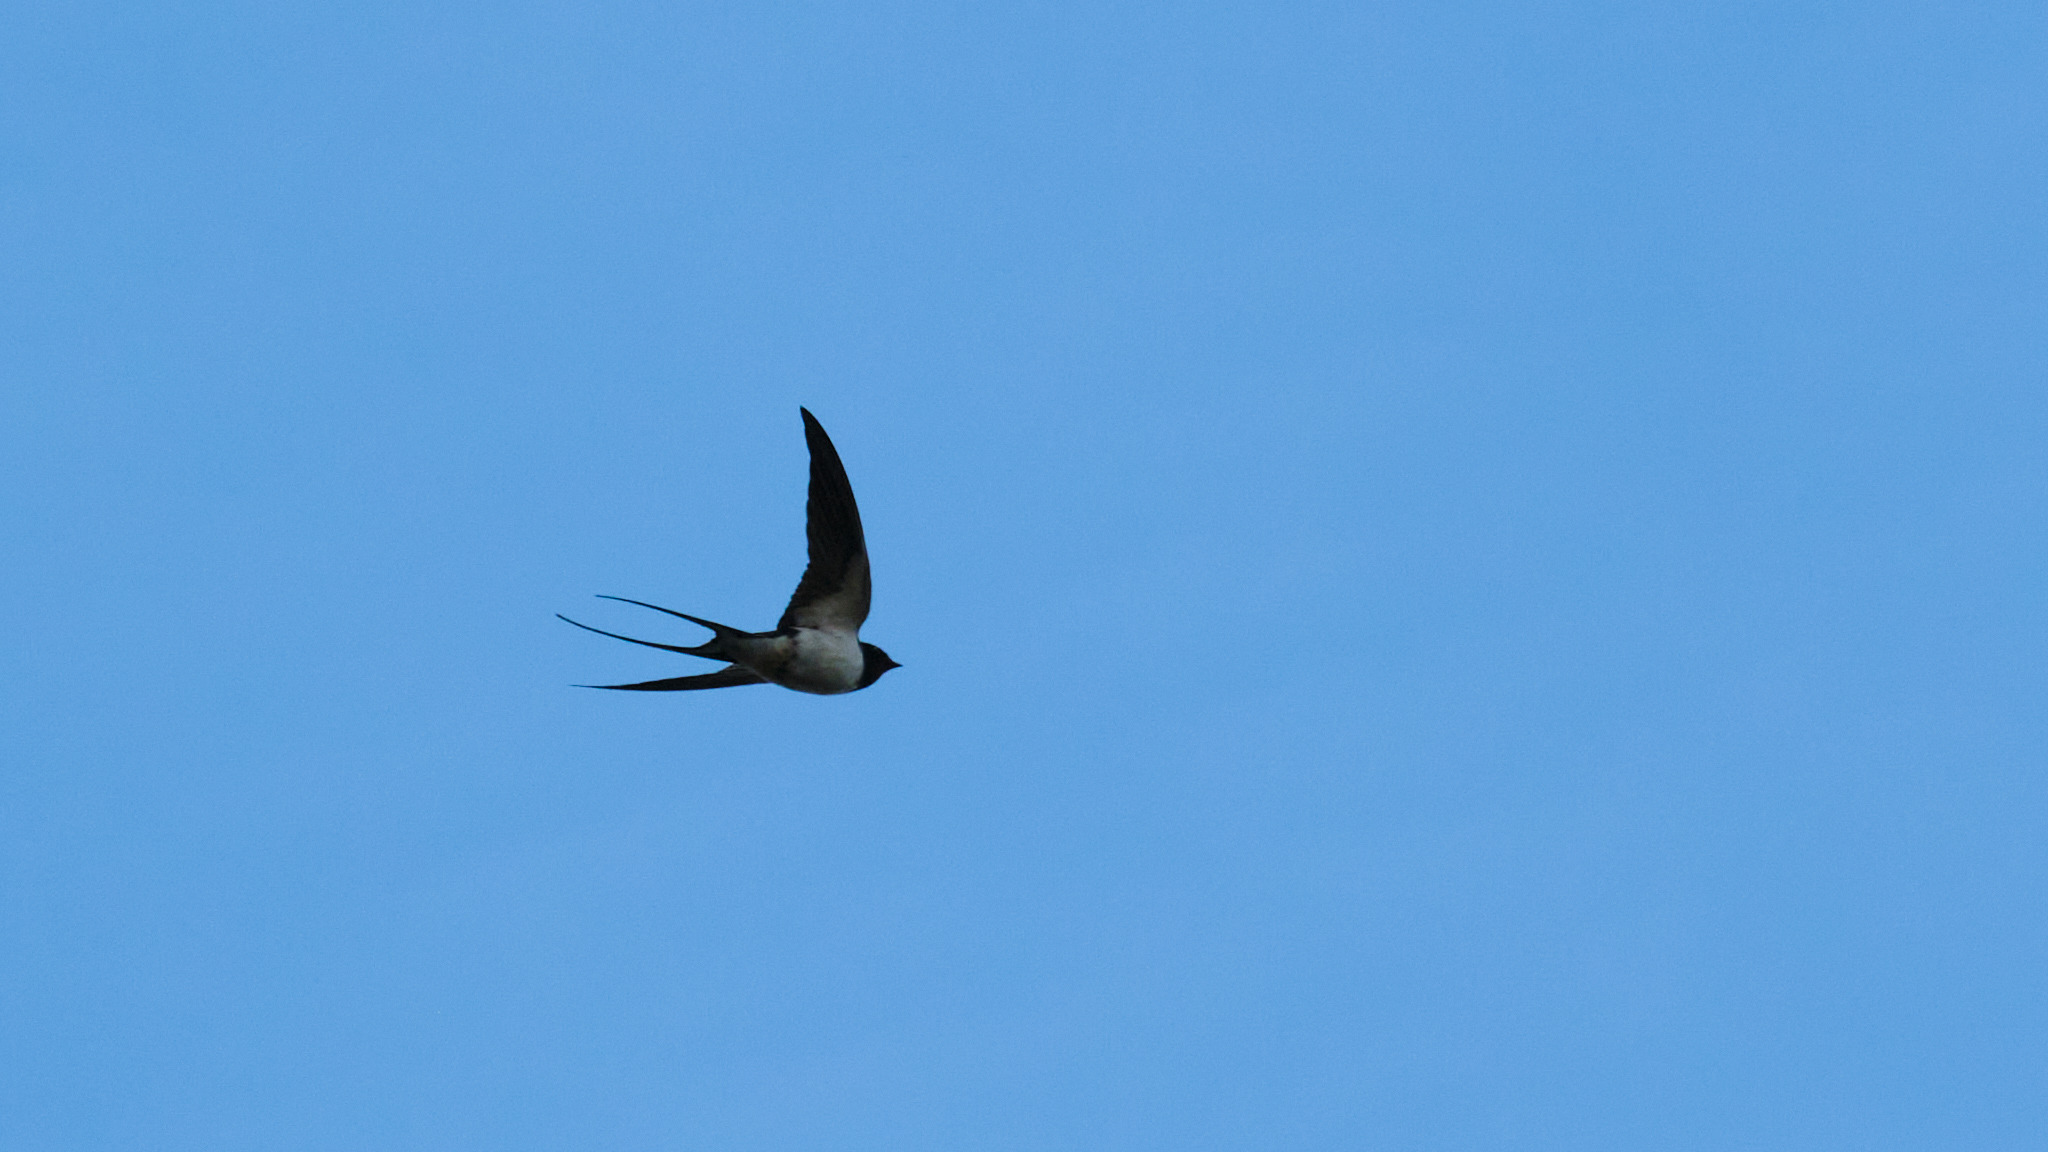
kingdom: Animalia
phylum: Chordata
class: Aves
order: Passeriformes
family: Hirundinidae
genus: Hirundo
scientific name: Hirundo rustica
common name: Barn swallow
